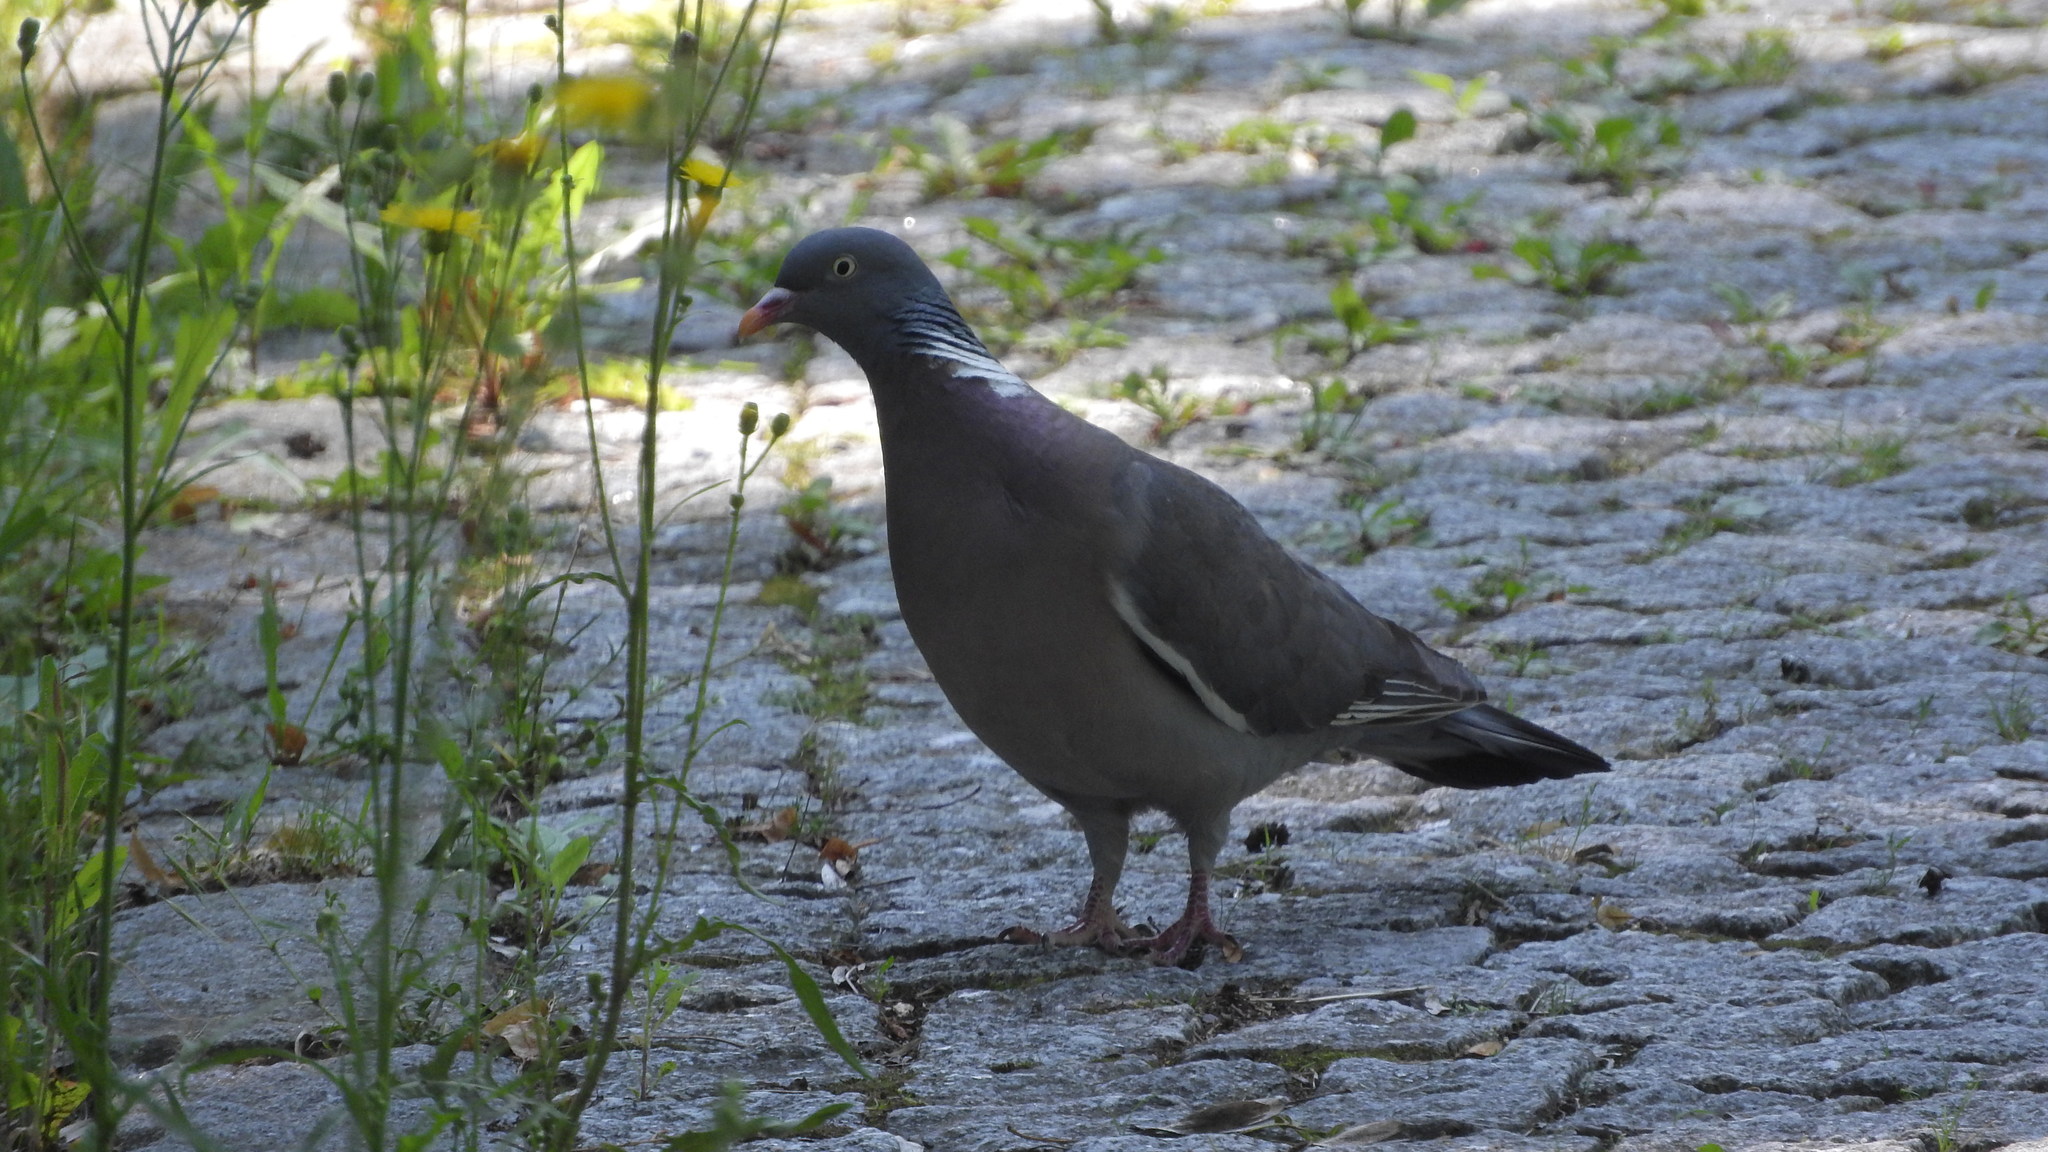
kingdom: Animalia
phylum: Chordata
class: Aves
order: Columbiformes
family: Columbidae
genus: Columba
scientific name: Columba palumbus
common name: Common wood pigeon
